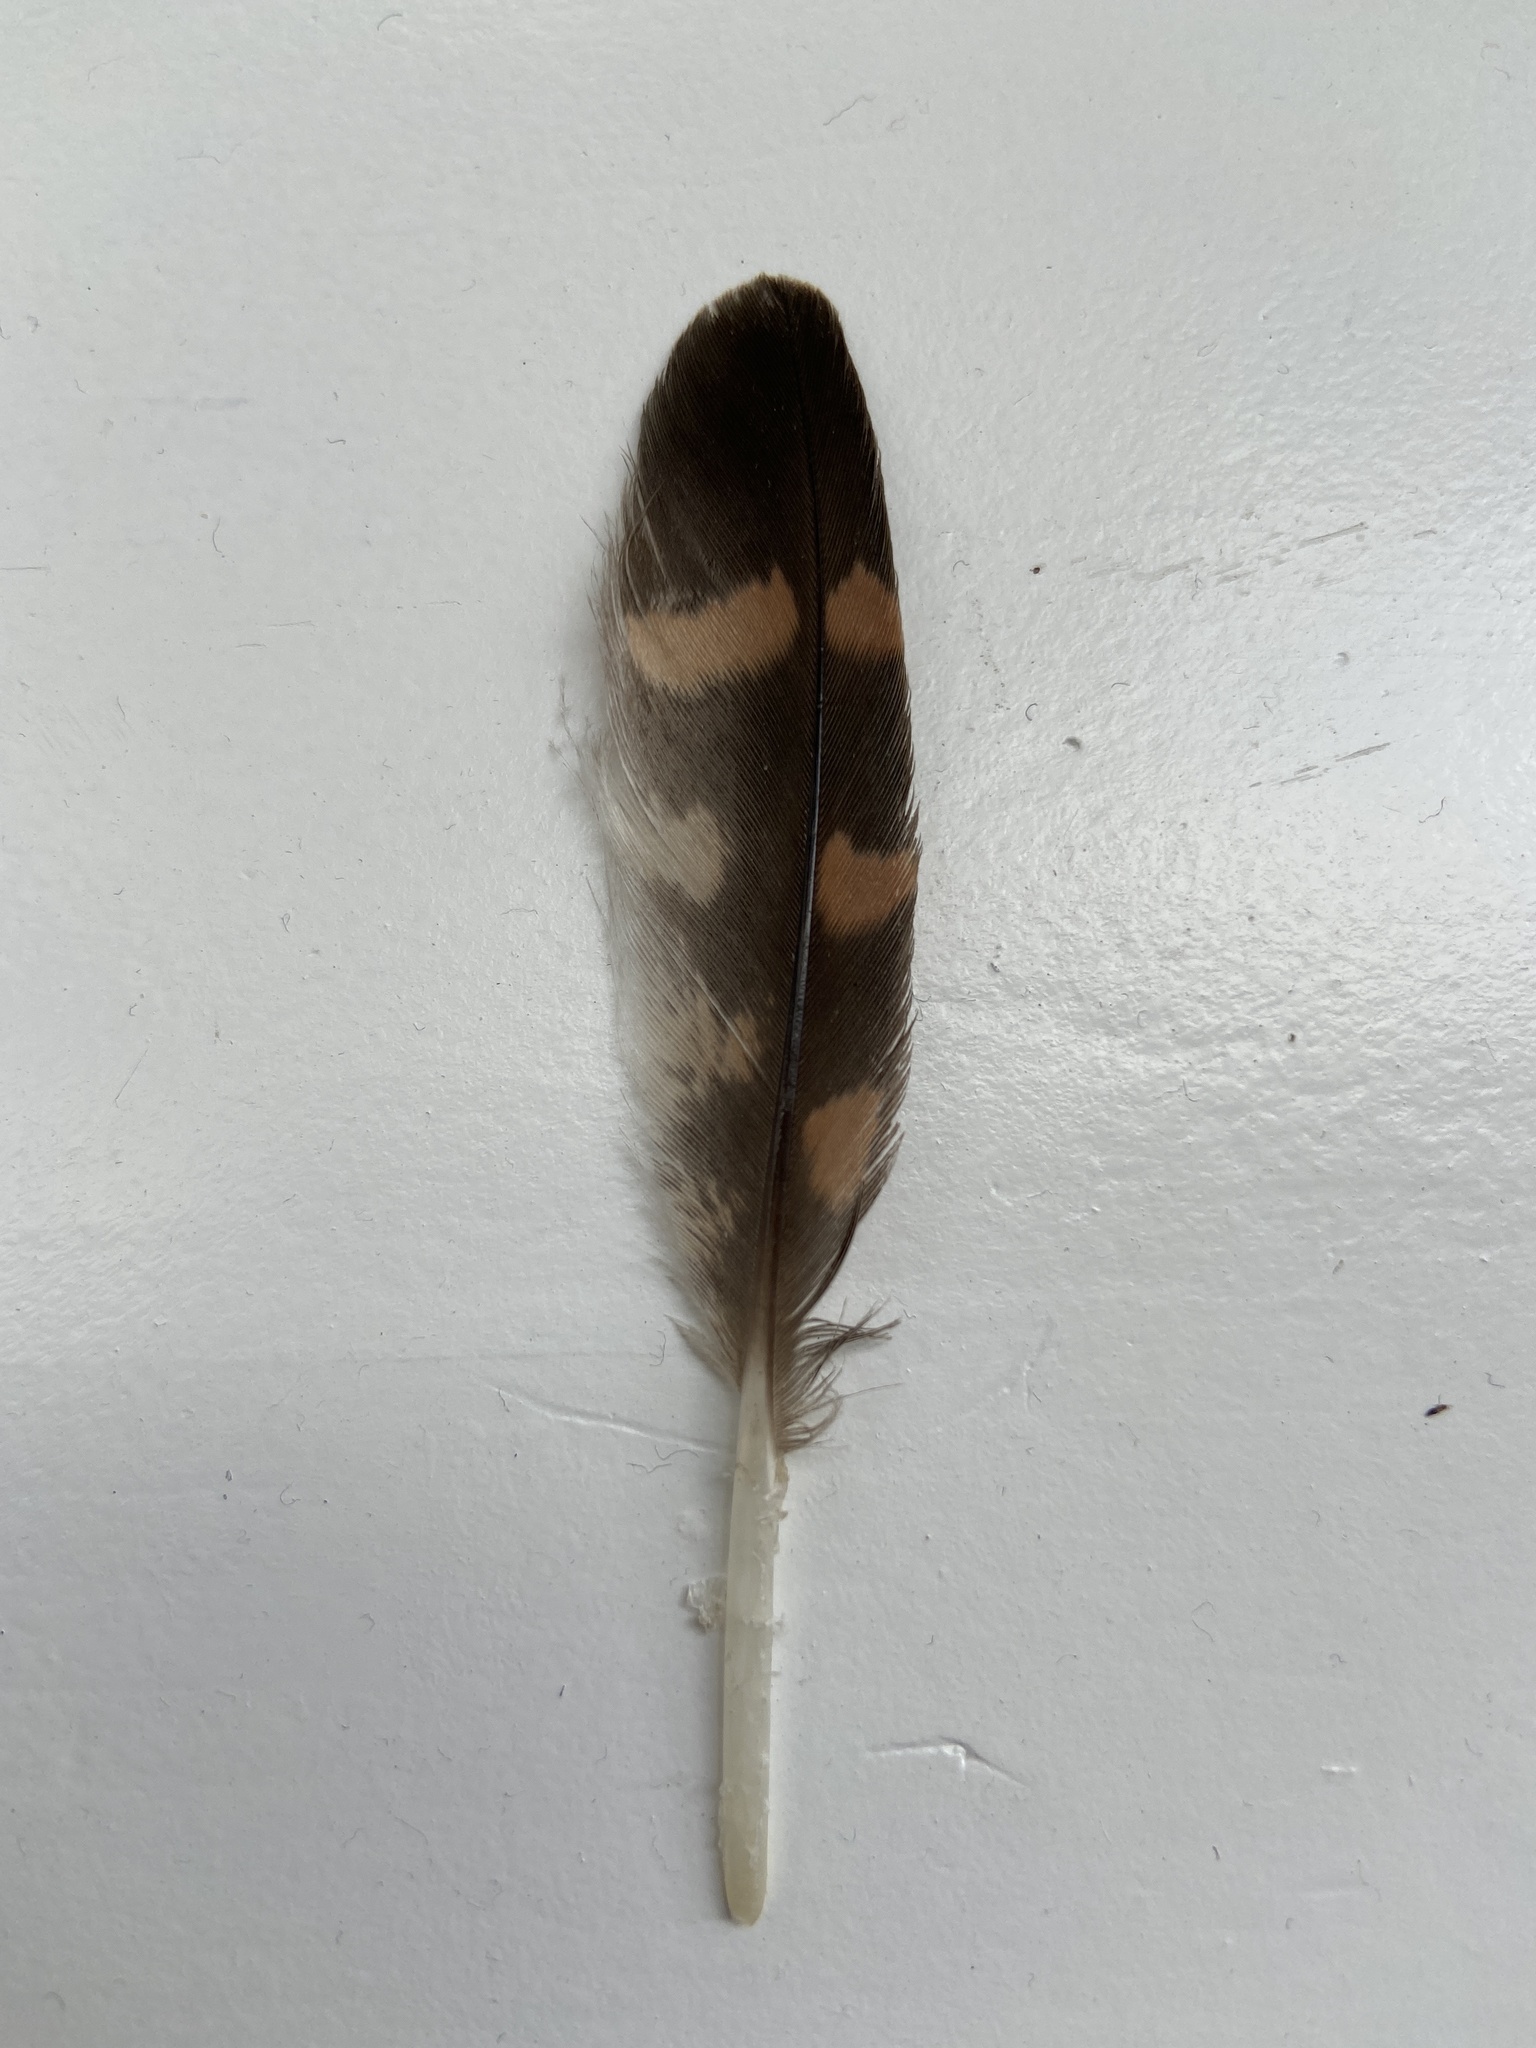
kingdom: Animalia
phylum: Chordata
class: Aves
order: Falconiformes
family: Falconidae
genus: Falco
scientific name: Falco peregrinus
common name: Peregrine falcon
